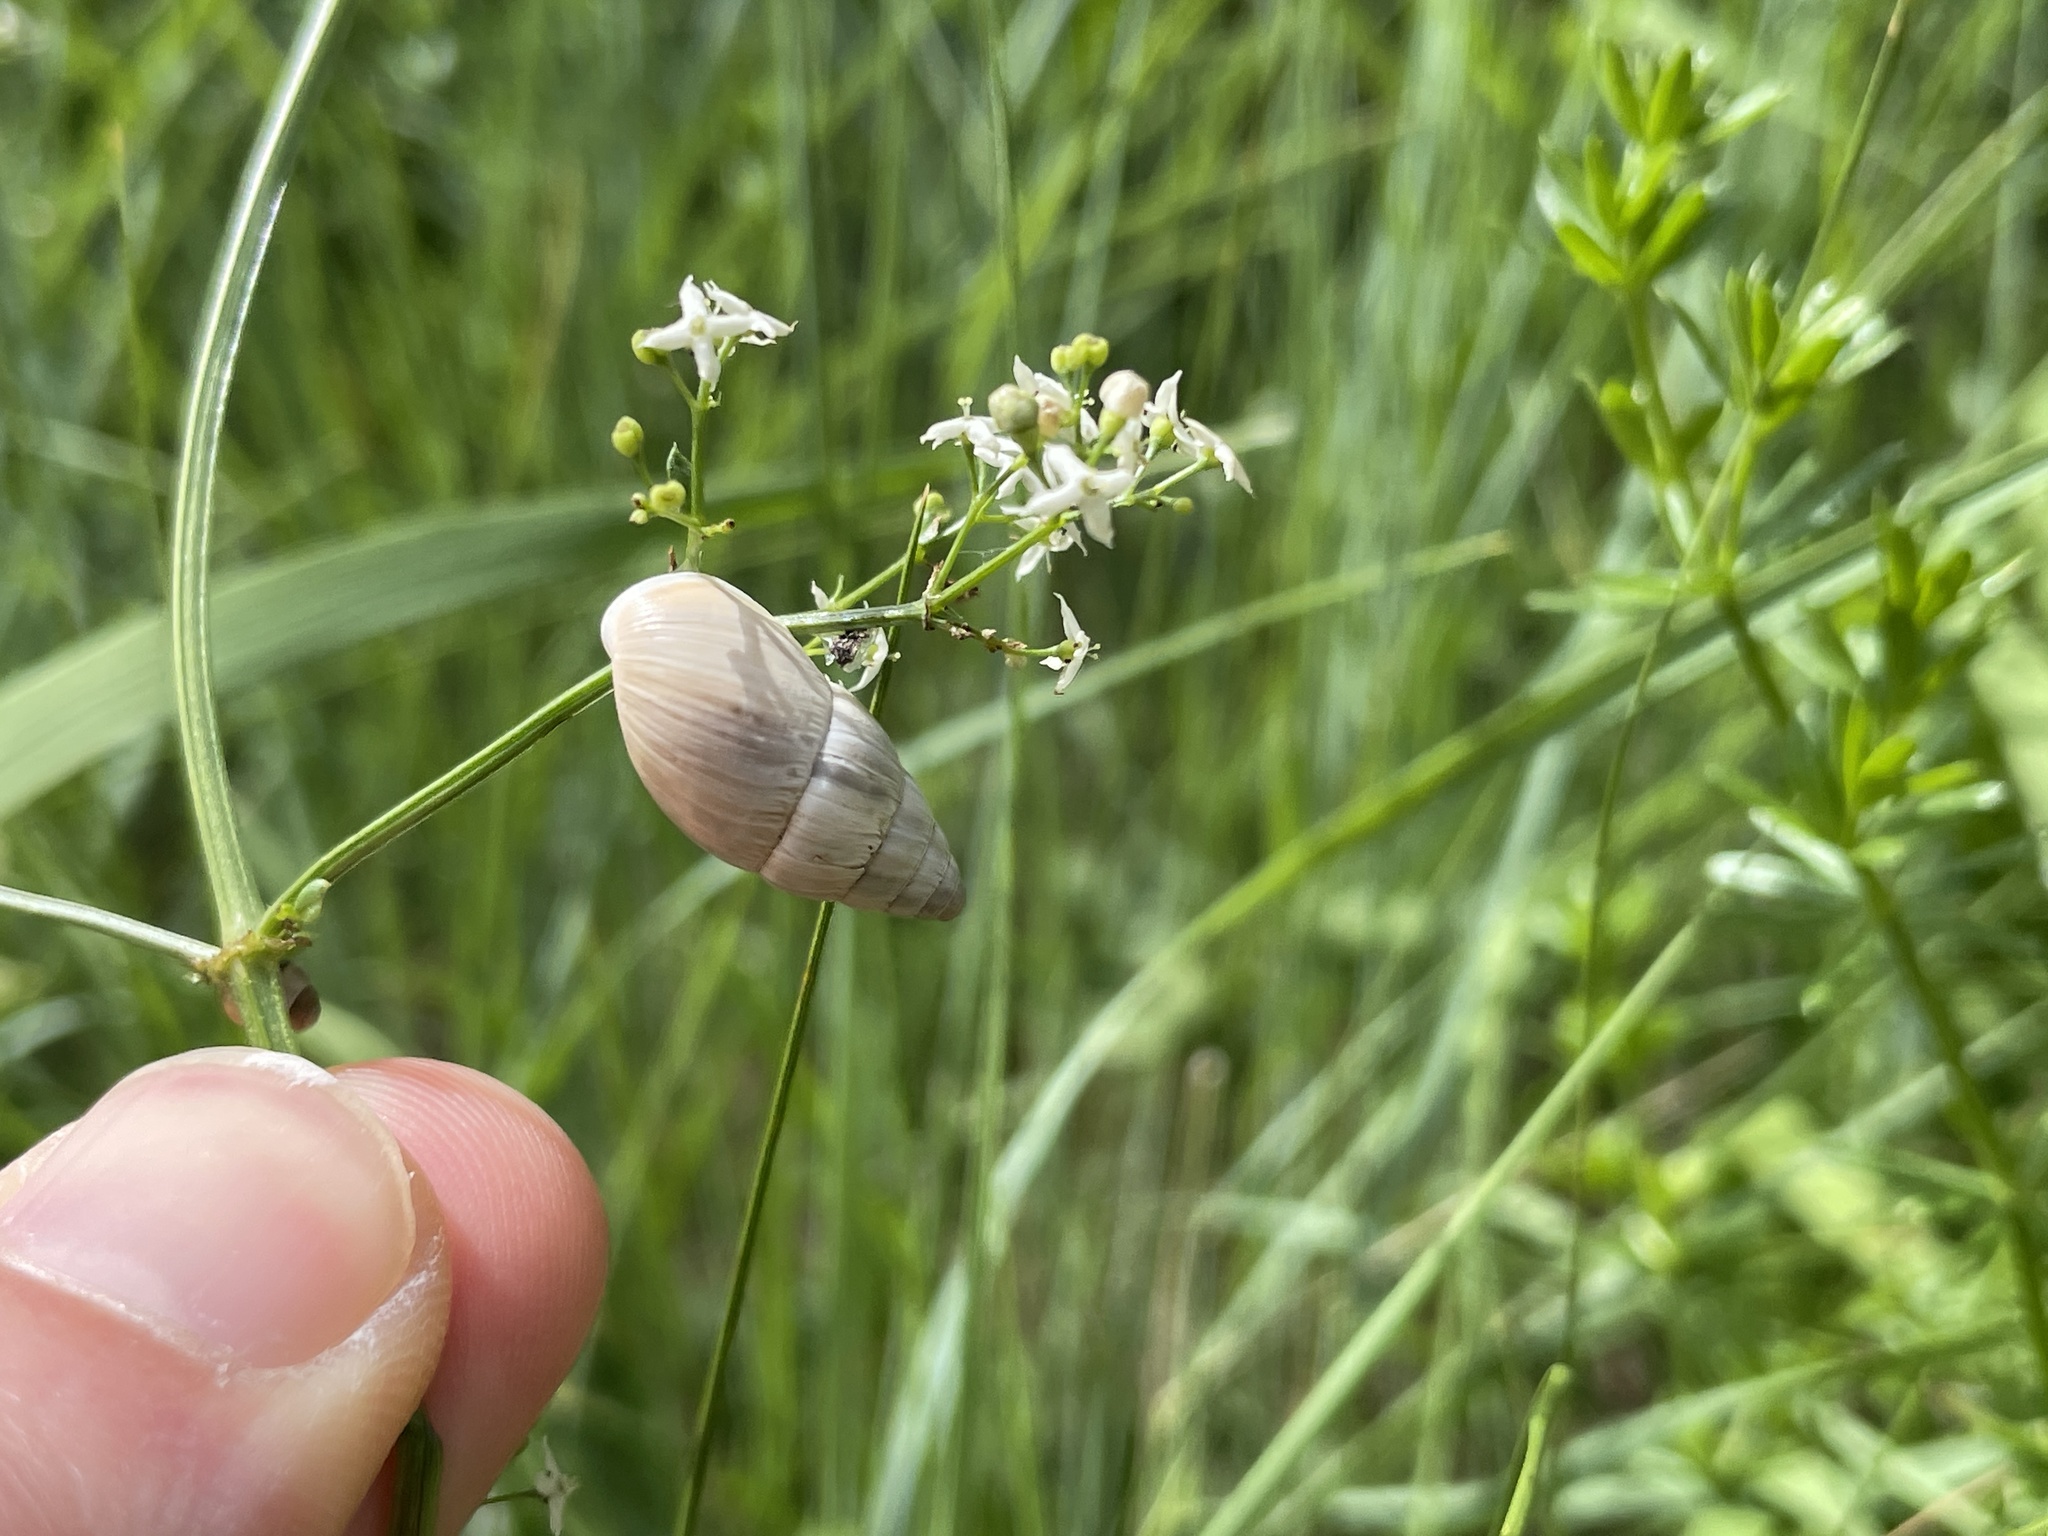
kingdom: Animalia
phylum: Mollusca
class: Gastropoda
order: Stylommatophora
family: Enidae
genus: Zebrina
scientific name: Zebrina detrita
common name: Large bulin
